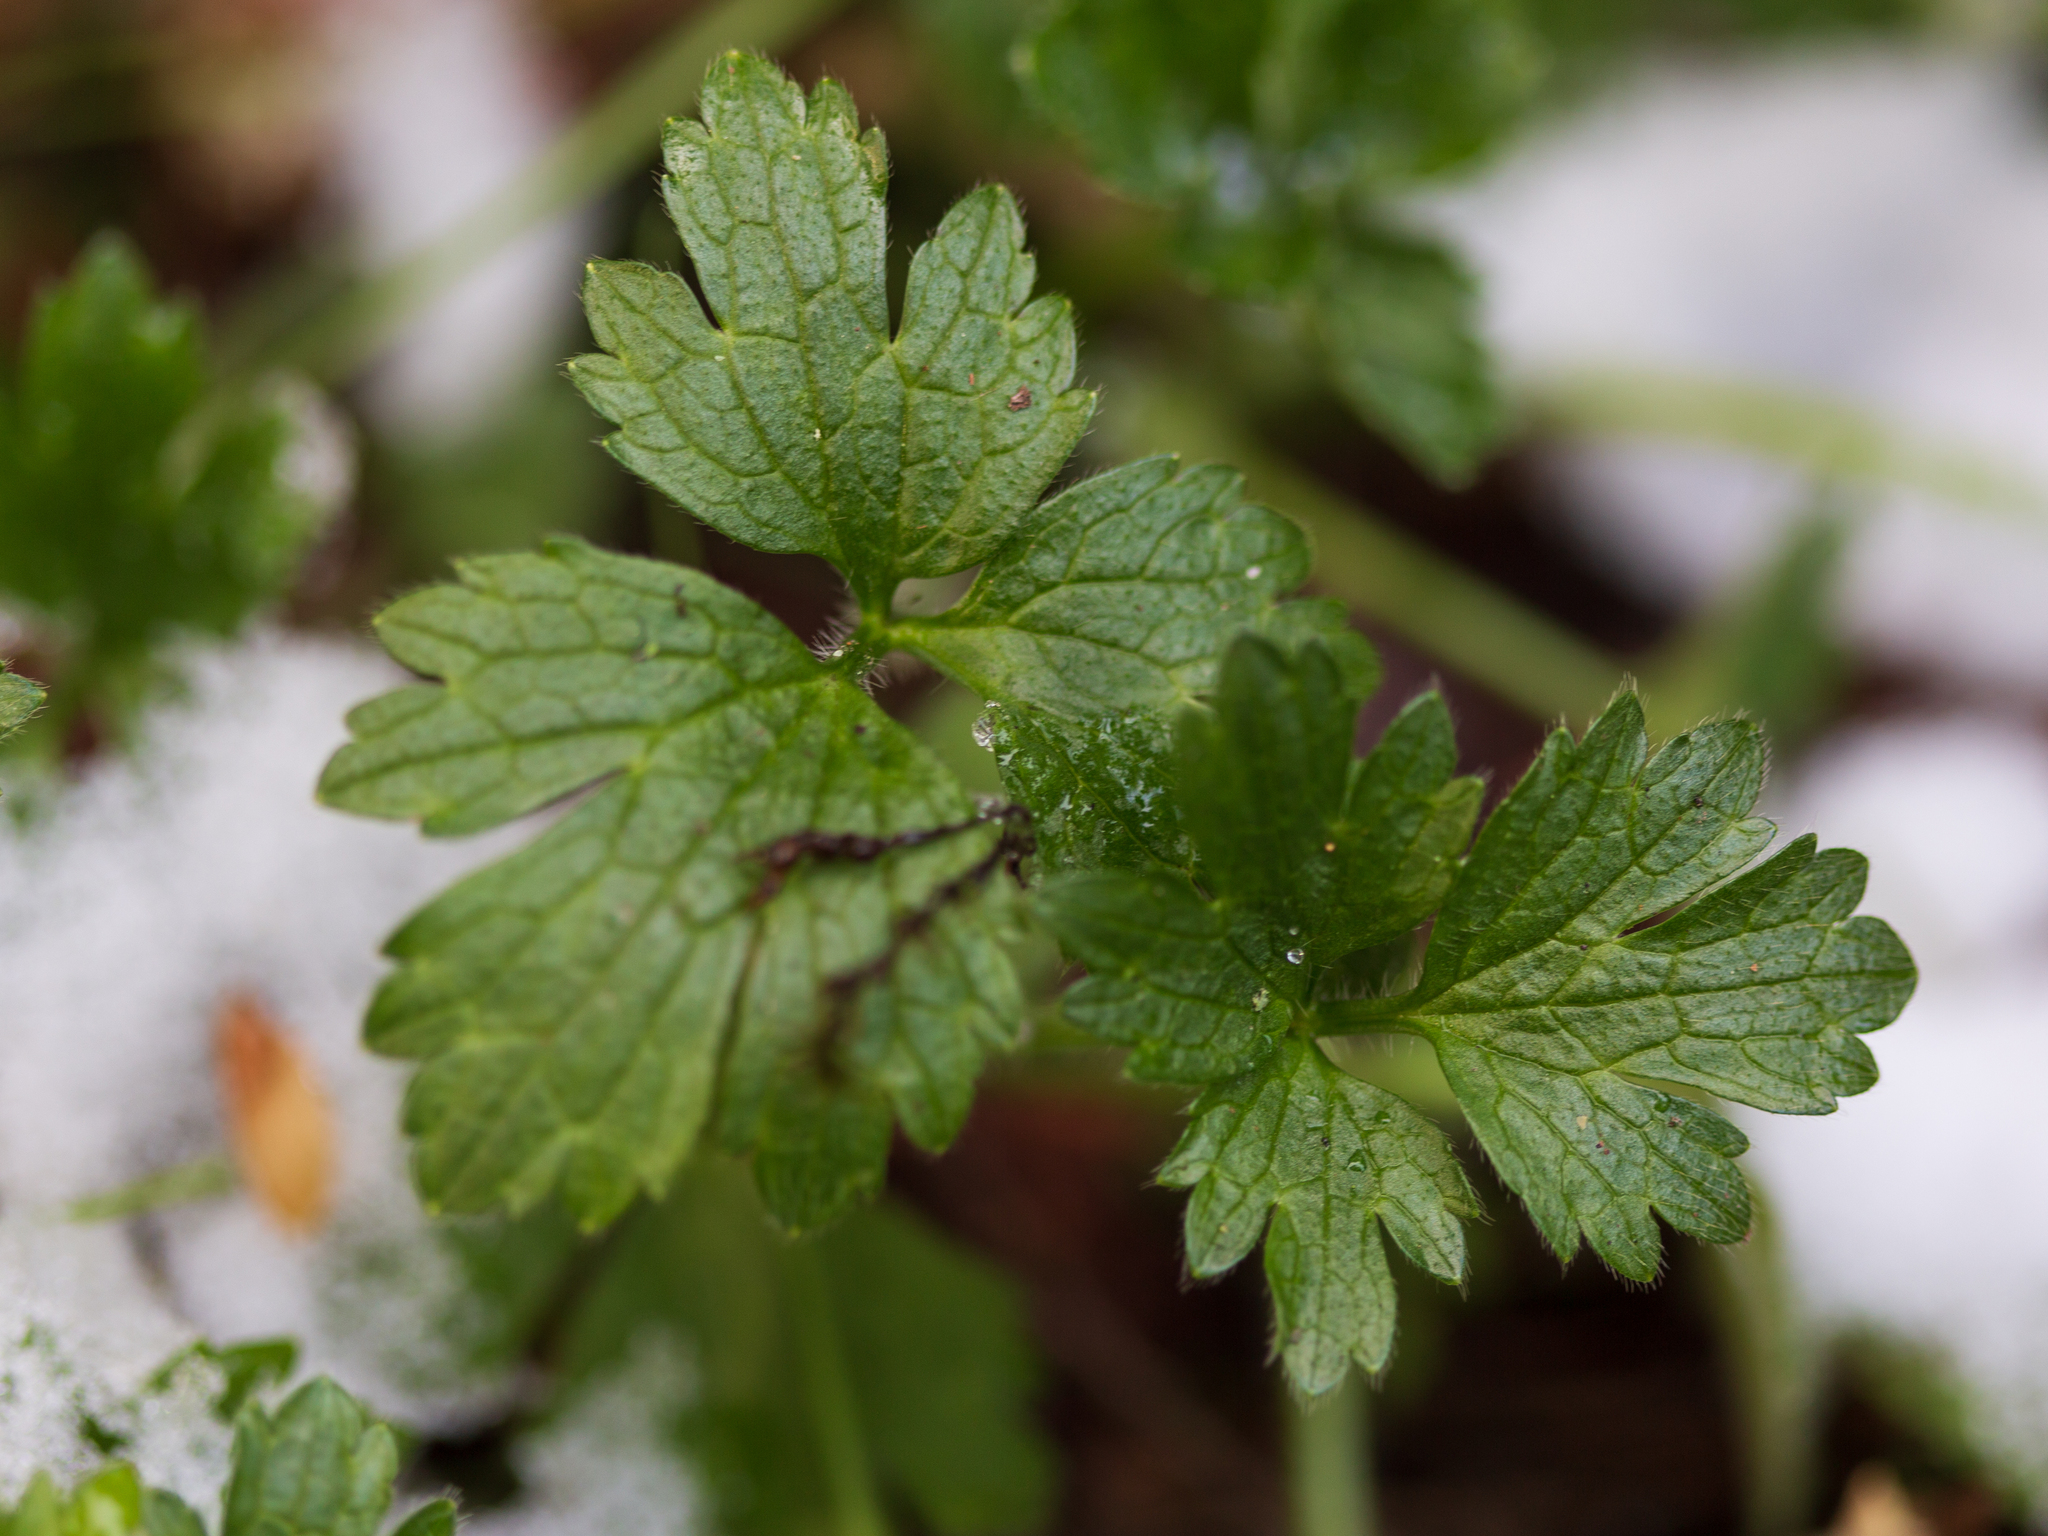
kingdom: Plantae
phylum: Tracheophyta
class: Magnoliopsida
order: Ranunculales
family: Ranunculaceae
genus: Ranunculus
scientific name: Ranunculus repens
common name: Creeping buttercup
